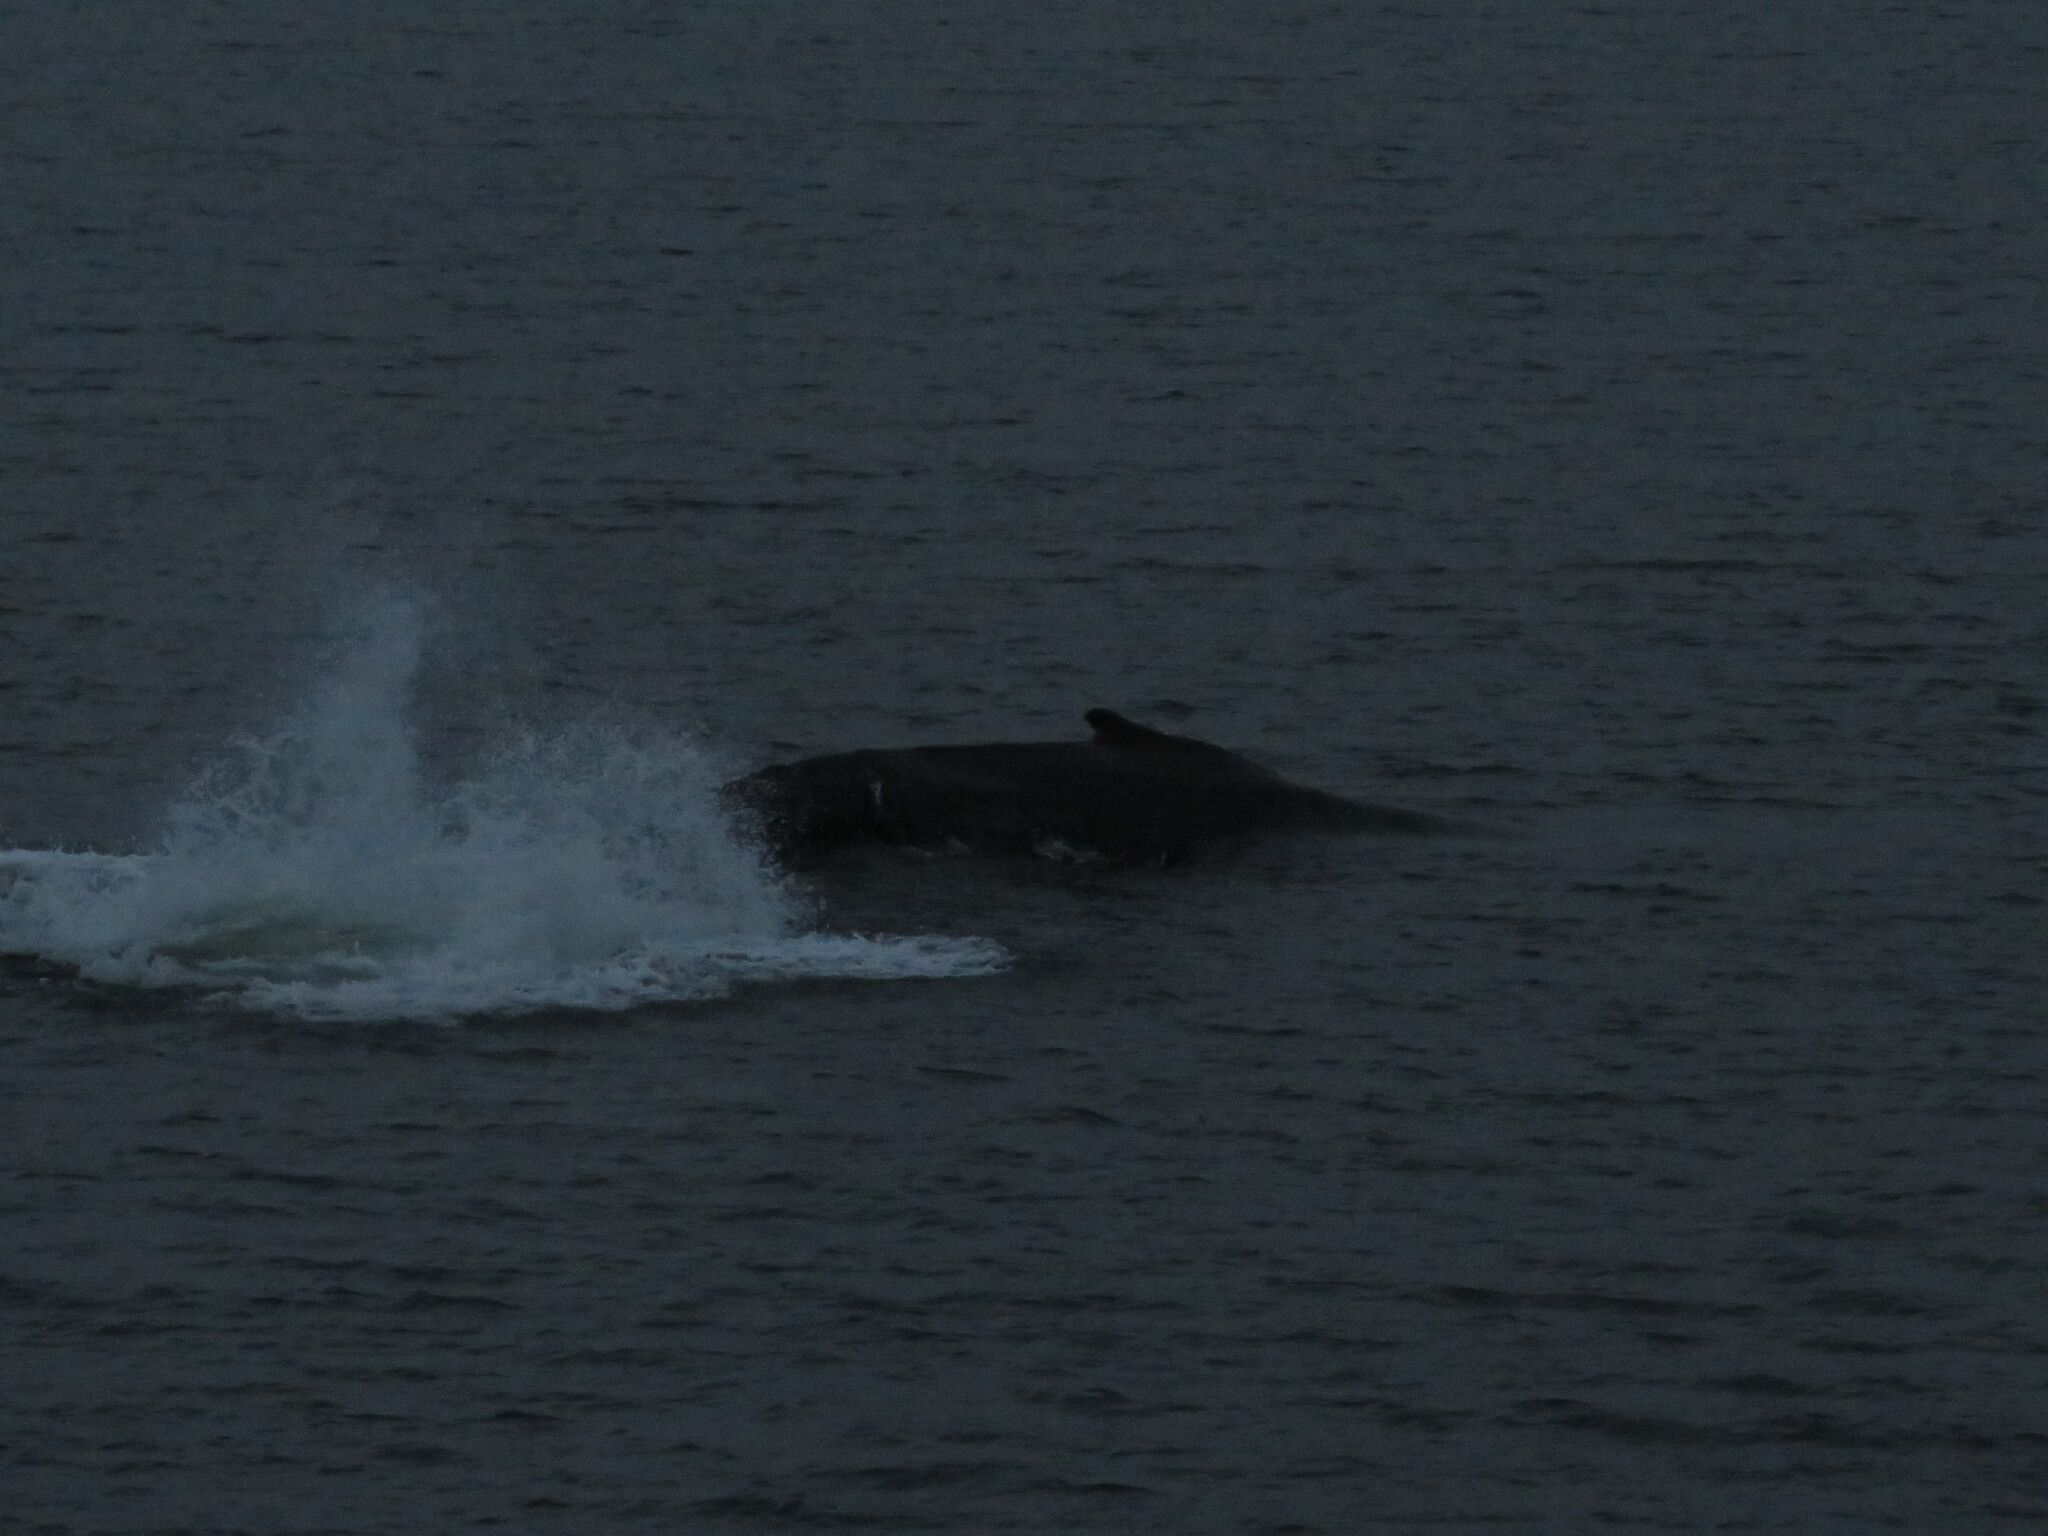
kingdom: Animalia
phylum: Chordata
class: Mammalia
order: Cetacea
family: Balaenopteridae
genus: Megaptera
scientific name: Megaptera novaeangliae
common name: Humpback whale
